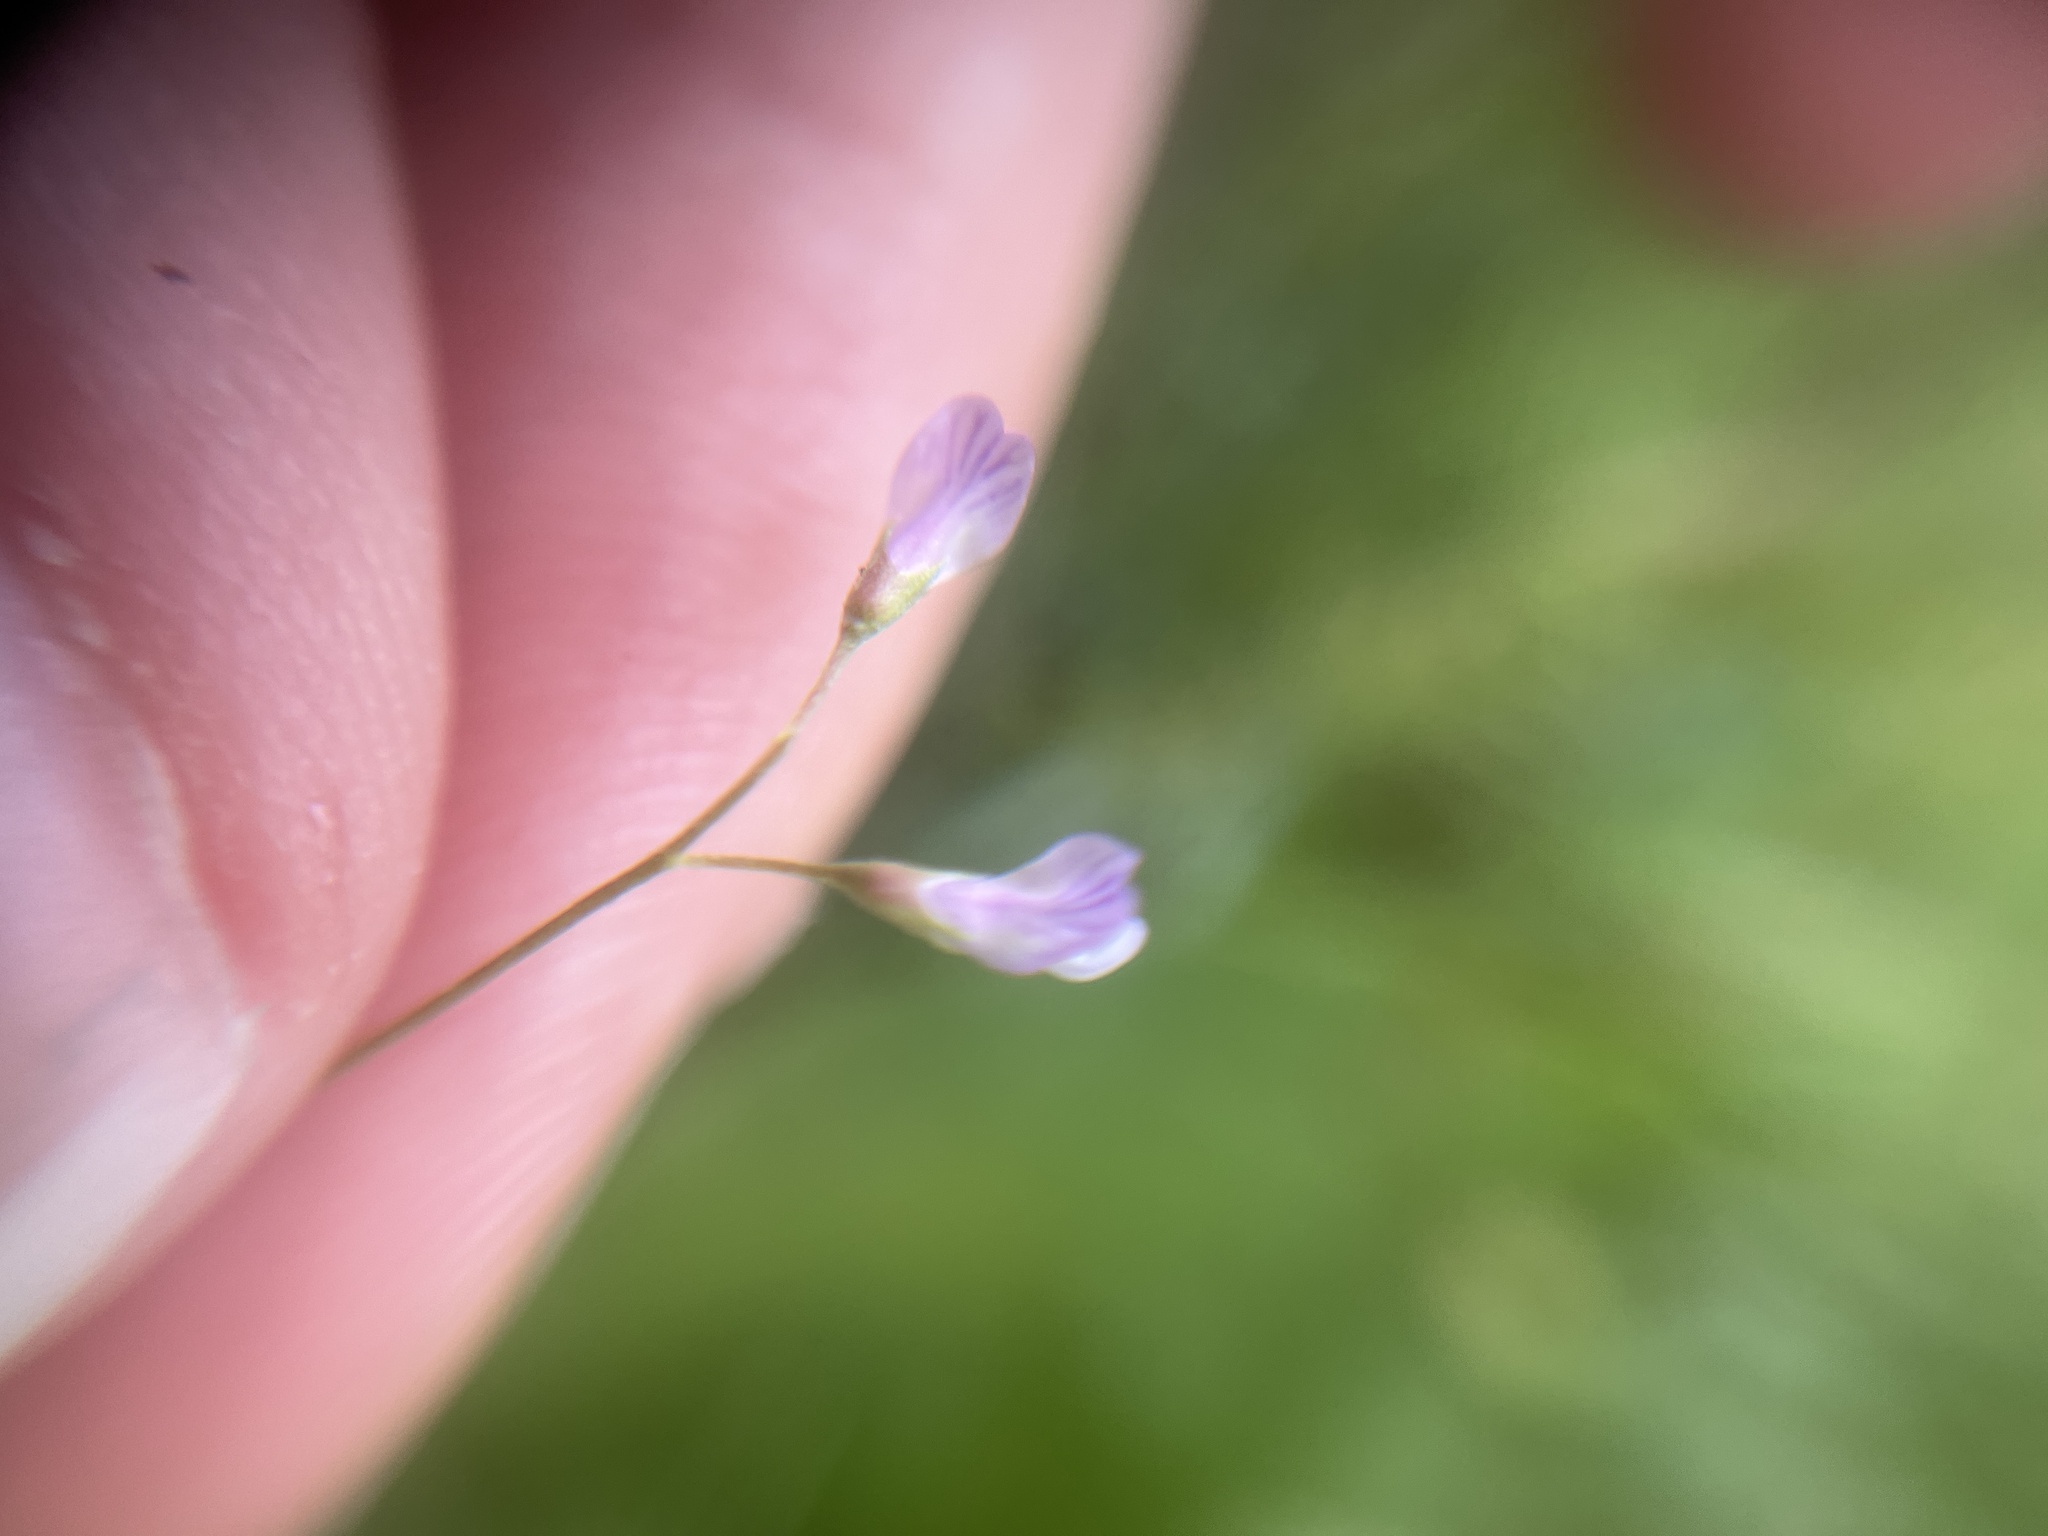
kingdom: Plantae
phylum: Tracheophyta
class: Magnoliopsida
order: Fabales
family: Fabaceae
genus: Vicia
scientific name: Vicia tetrasperma
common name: Smooth tare
